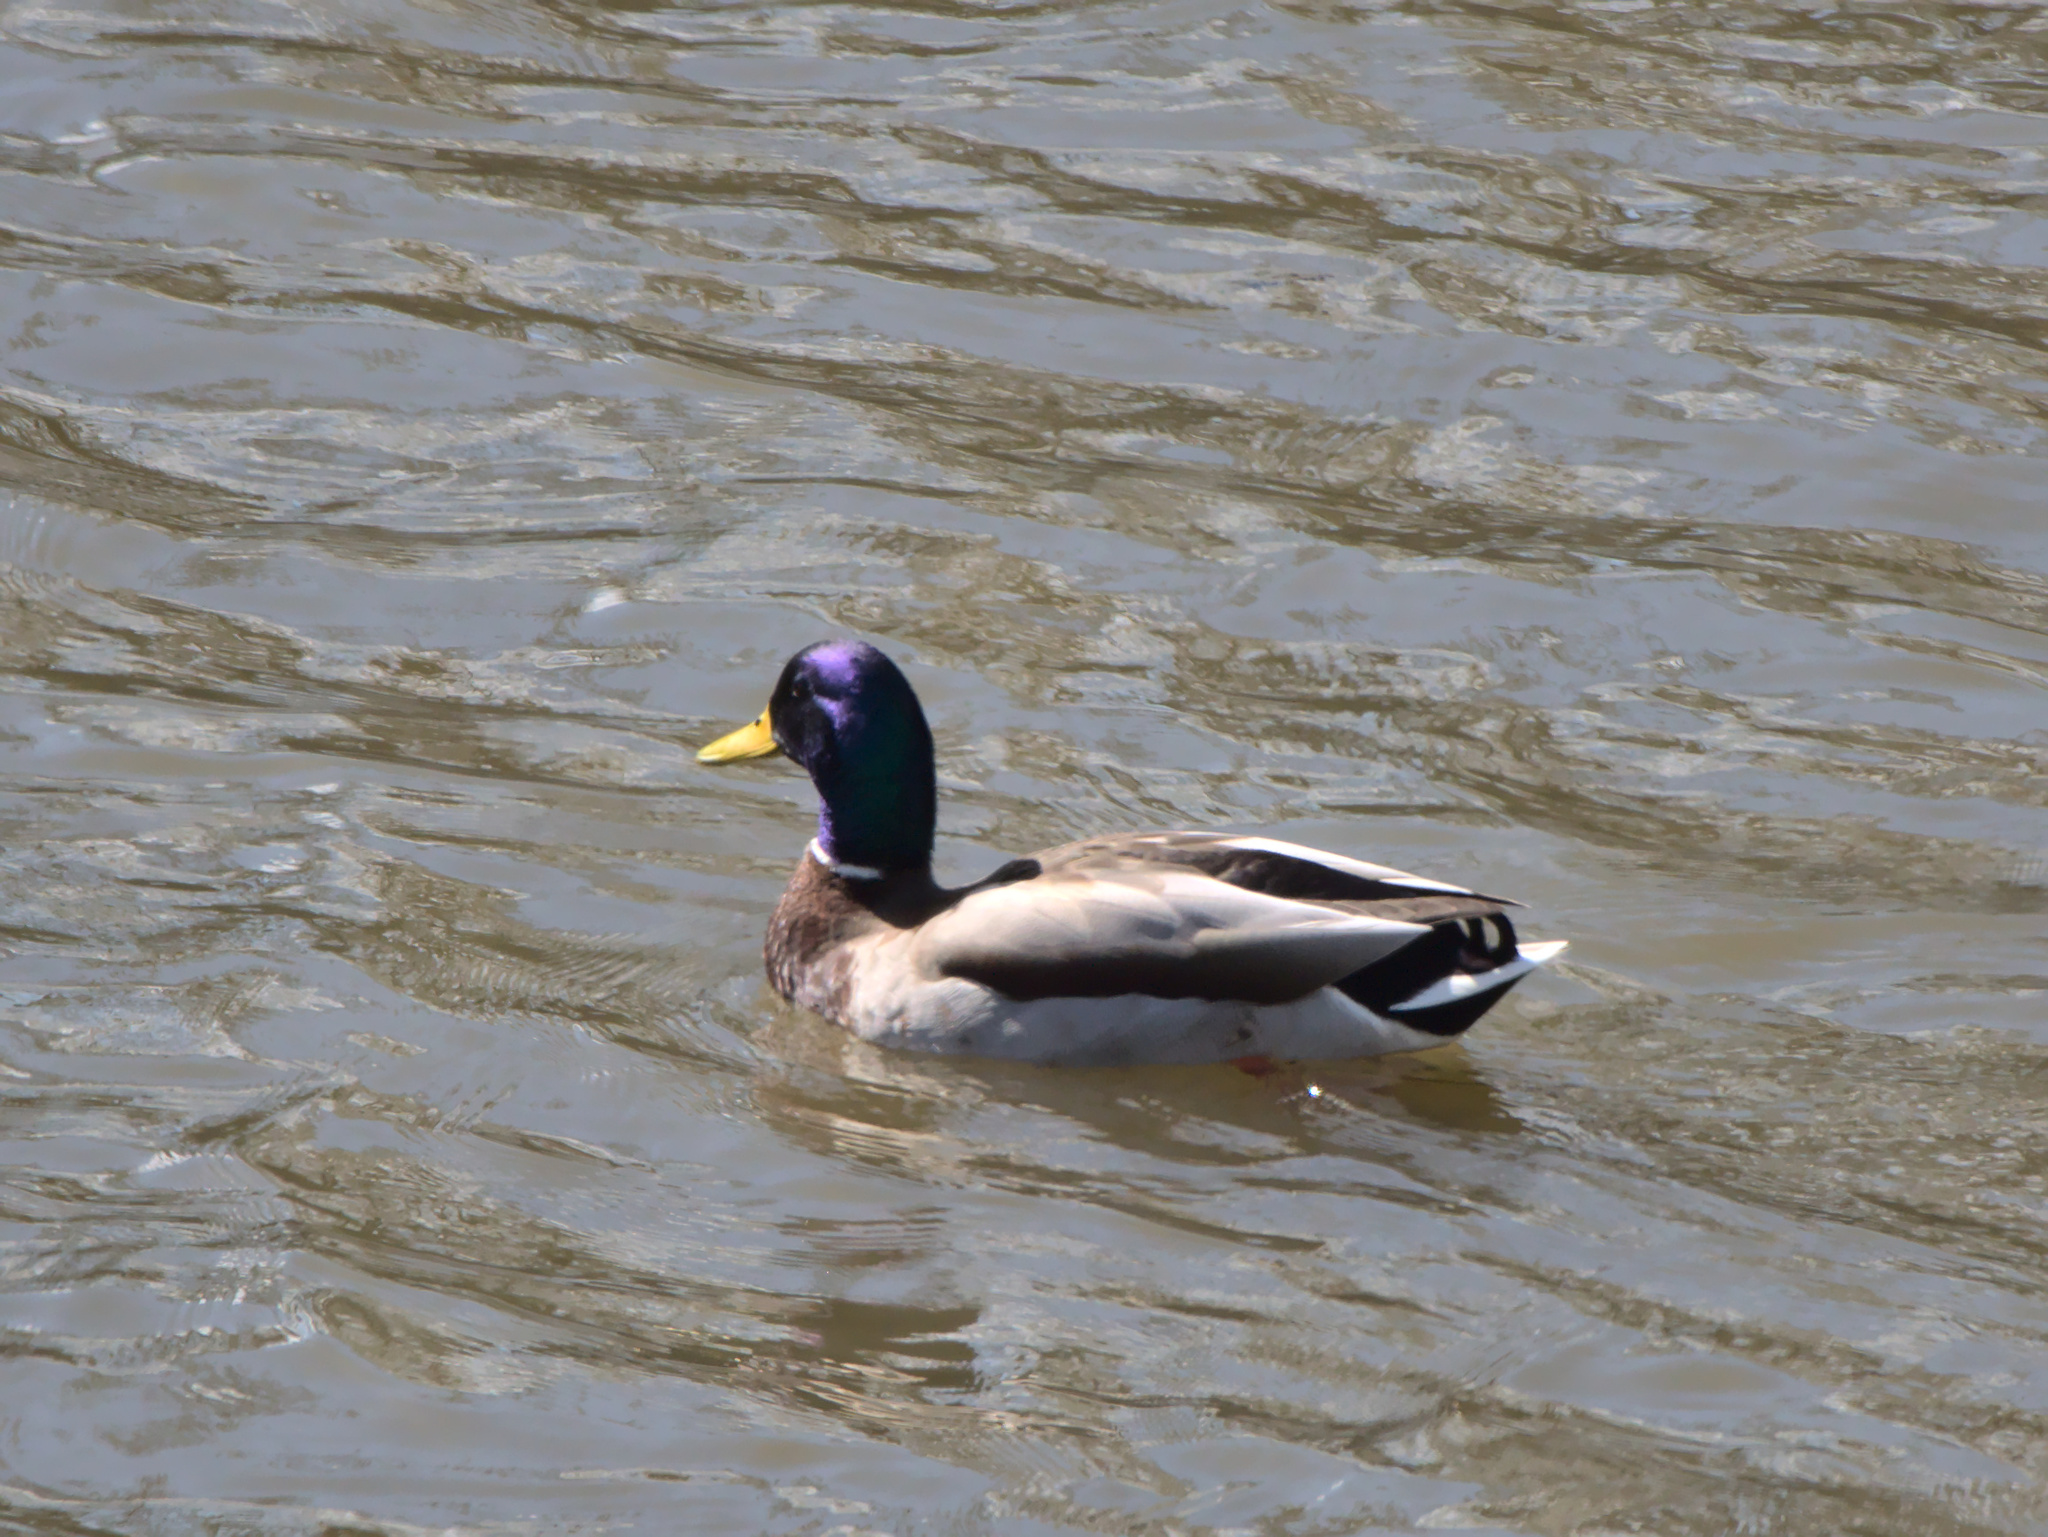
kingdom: Animalia
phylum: Chordata
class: Aves
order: Anseriformes
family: Anatidae
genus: Anas
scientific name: Anas platyrhynchos
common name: Mallard
